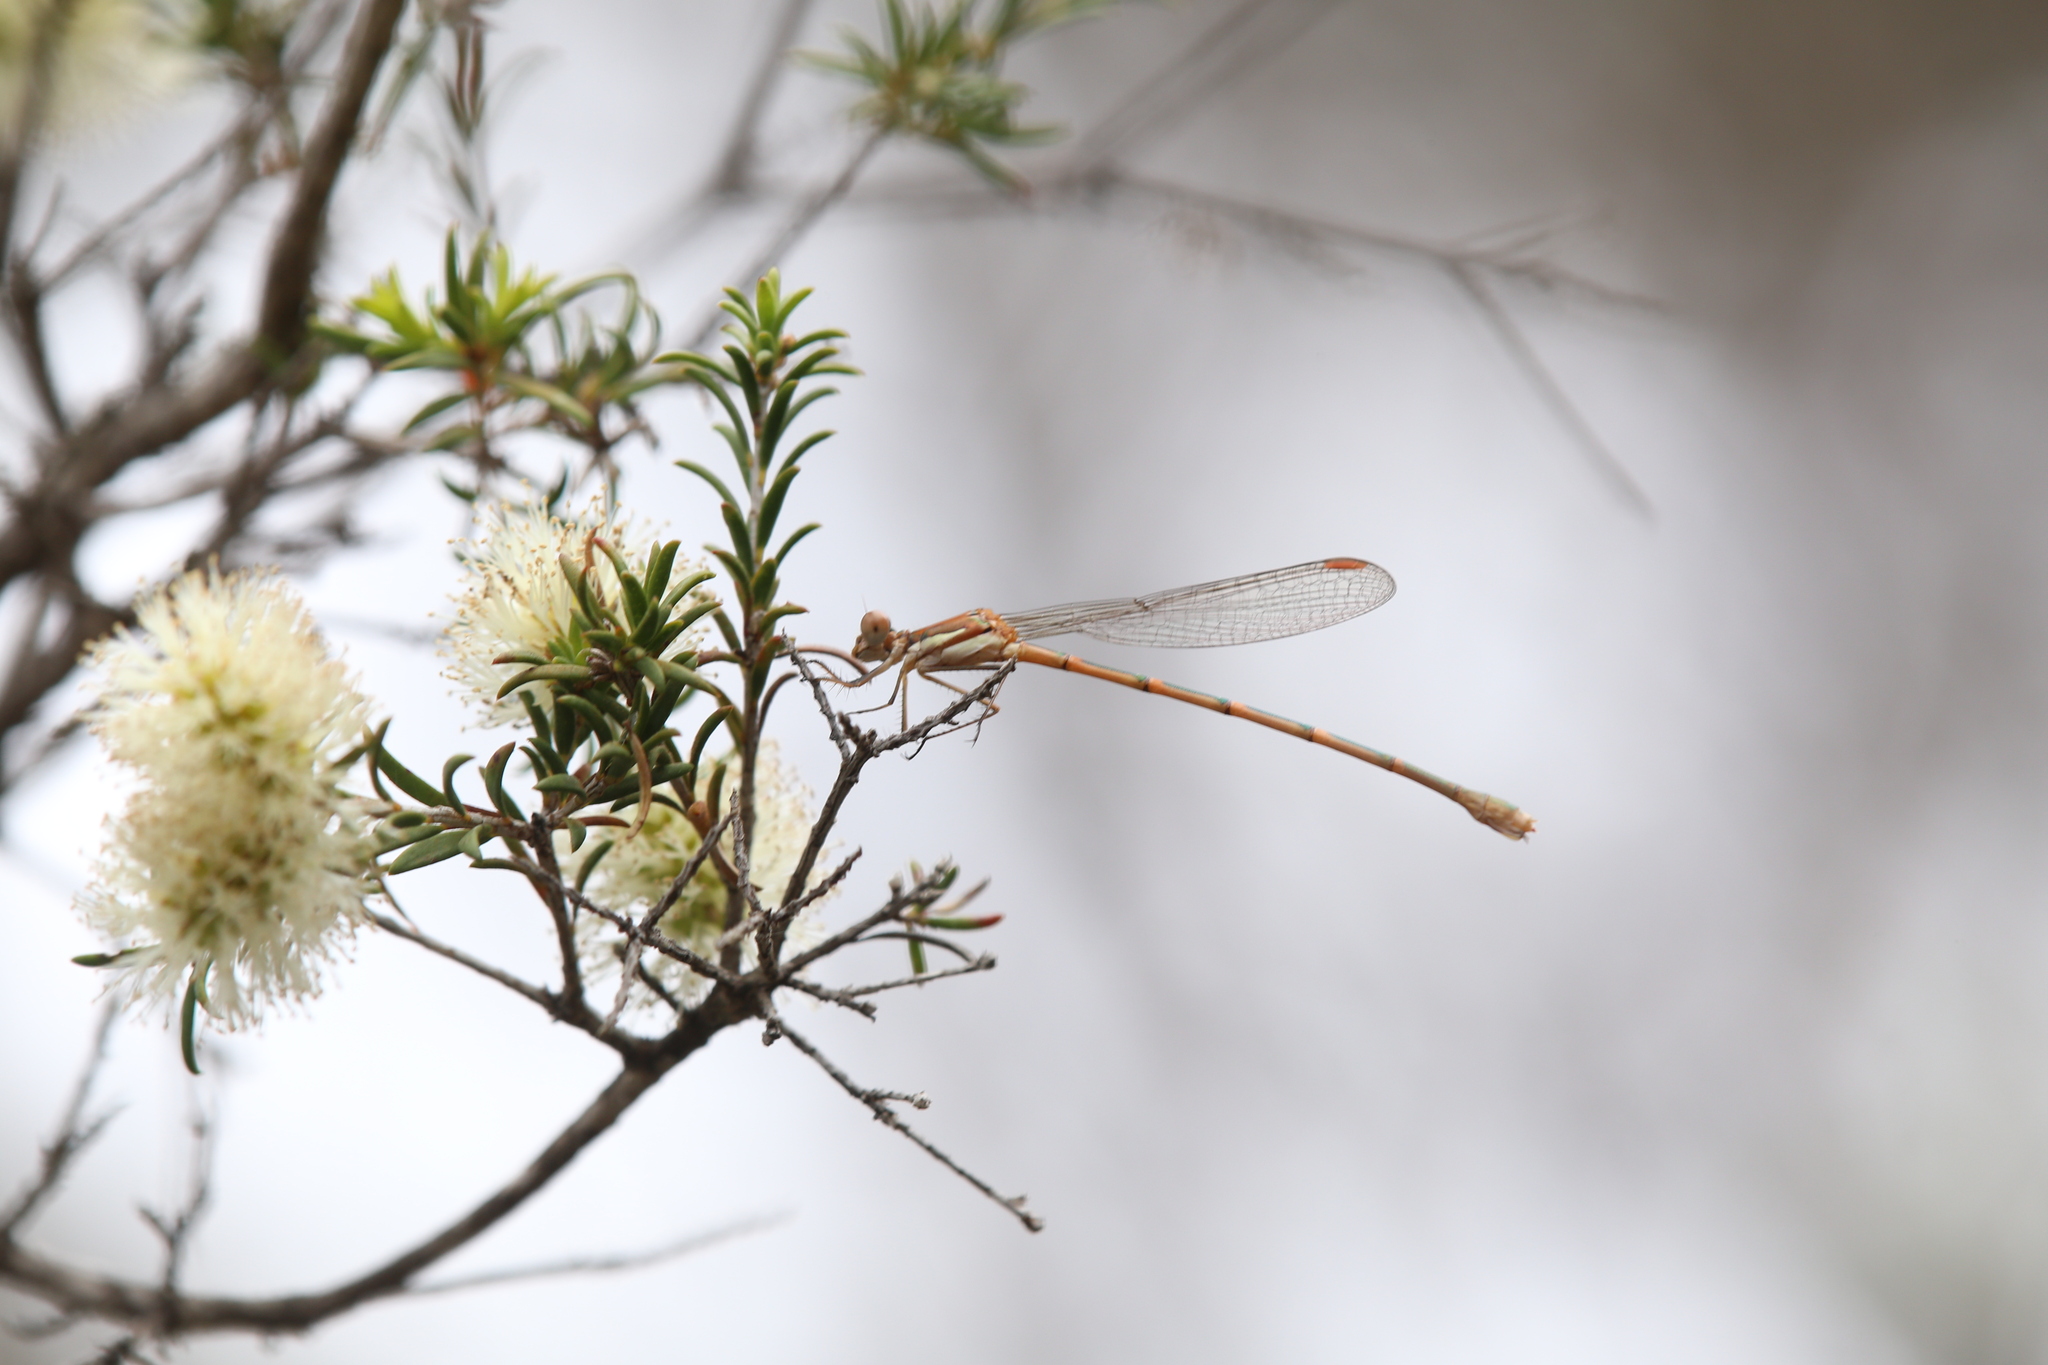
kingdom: Animalia
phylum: Arthropoda
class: Insecta
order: Odonata
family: Lestidae
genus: Austrolestes
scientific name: Austrolestes analis
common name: Slender ringtail
